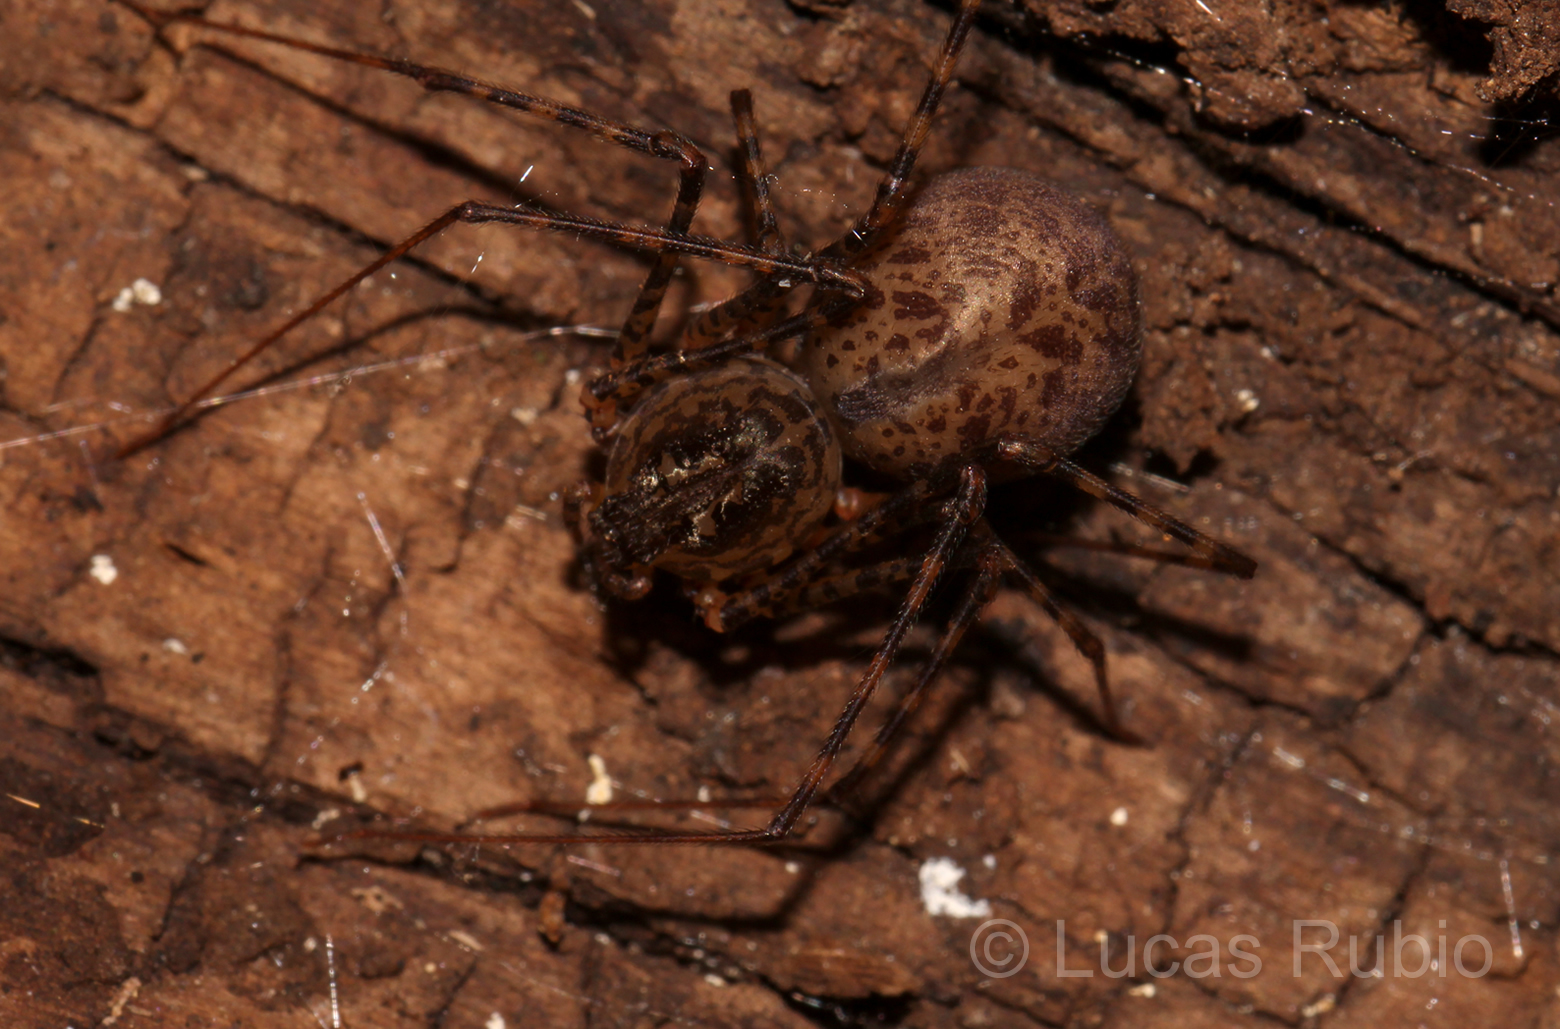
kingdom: Animalia
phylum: Arthropoda
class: Arachnida
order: Araneae
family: Scytodidae
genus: Scytodes
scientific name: Scytodes globula
